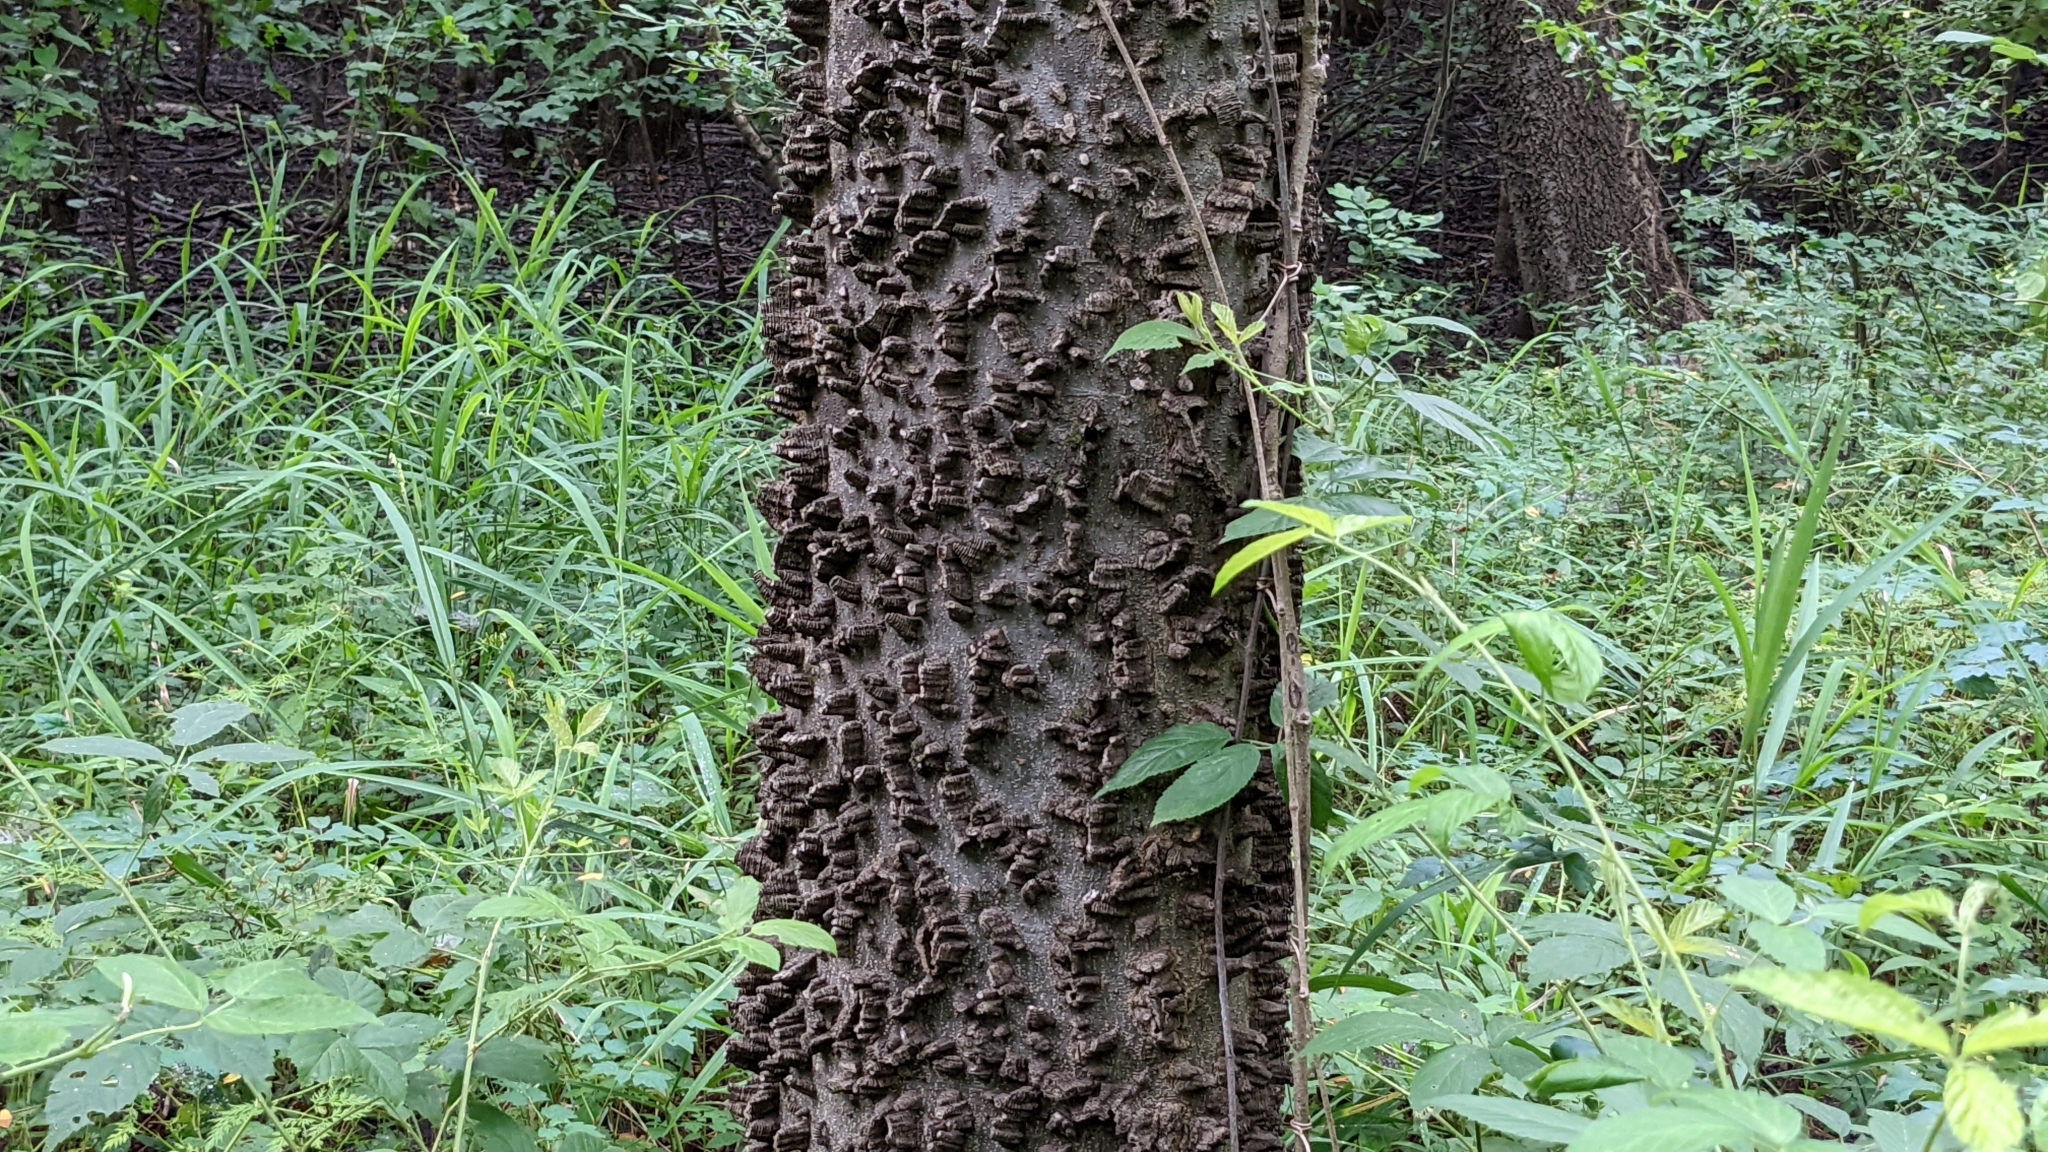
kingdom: Plantae
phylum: Tracheophyta
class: Magnoliopsida
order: Rosales
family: Cannabaceae
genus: Celtis
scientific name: Celtis laevigata
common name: Sugarberry
